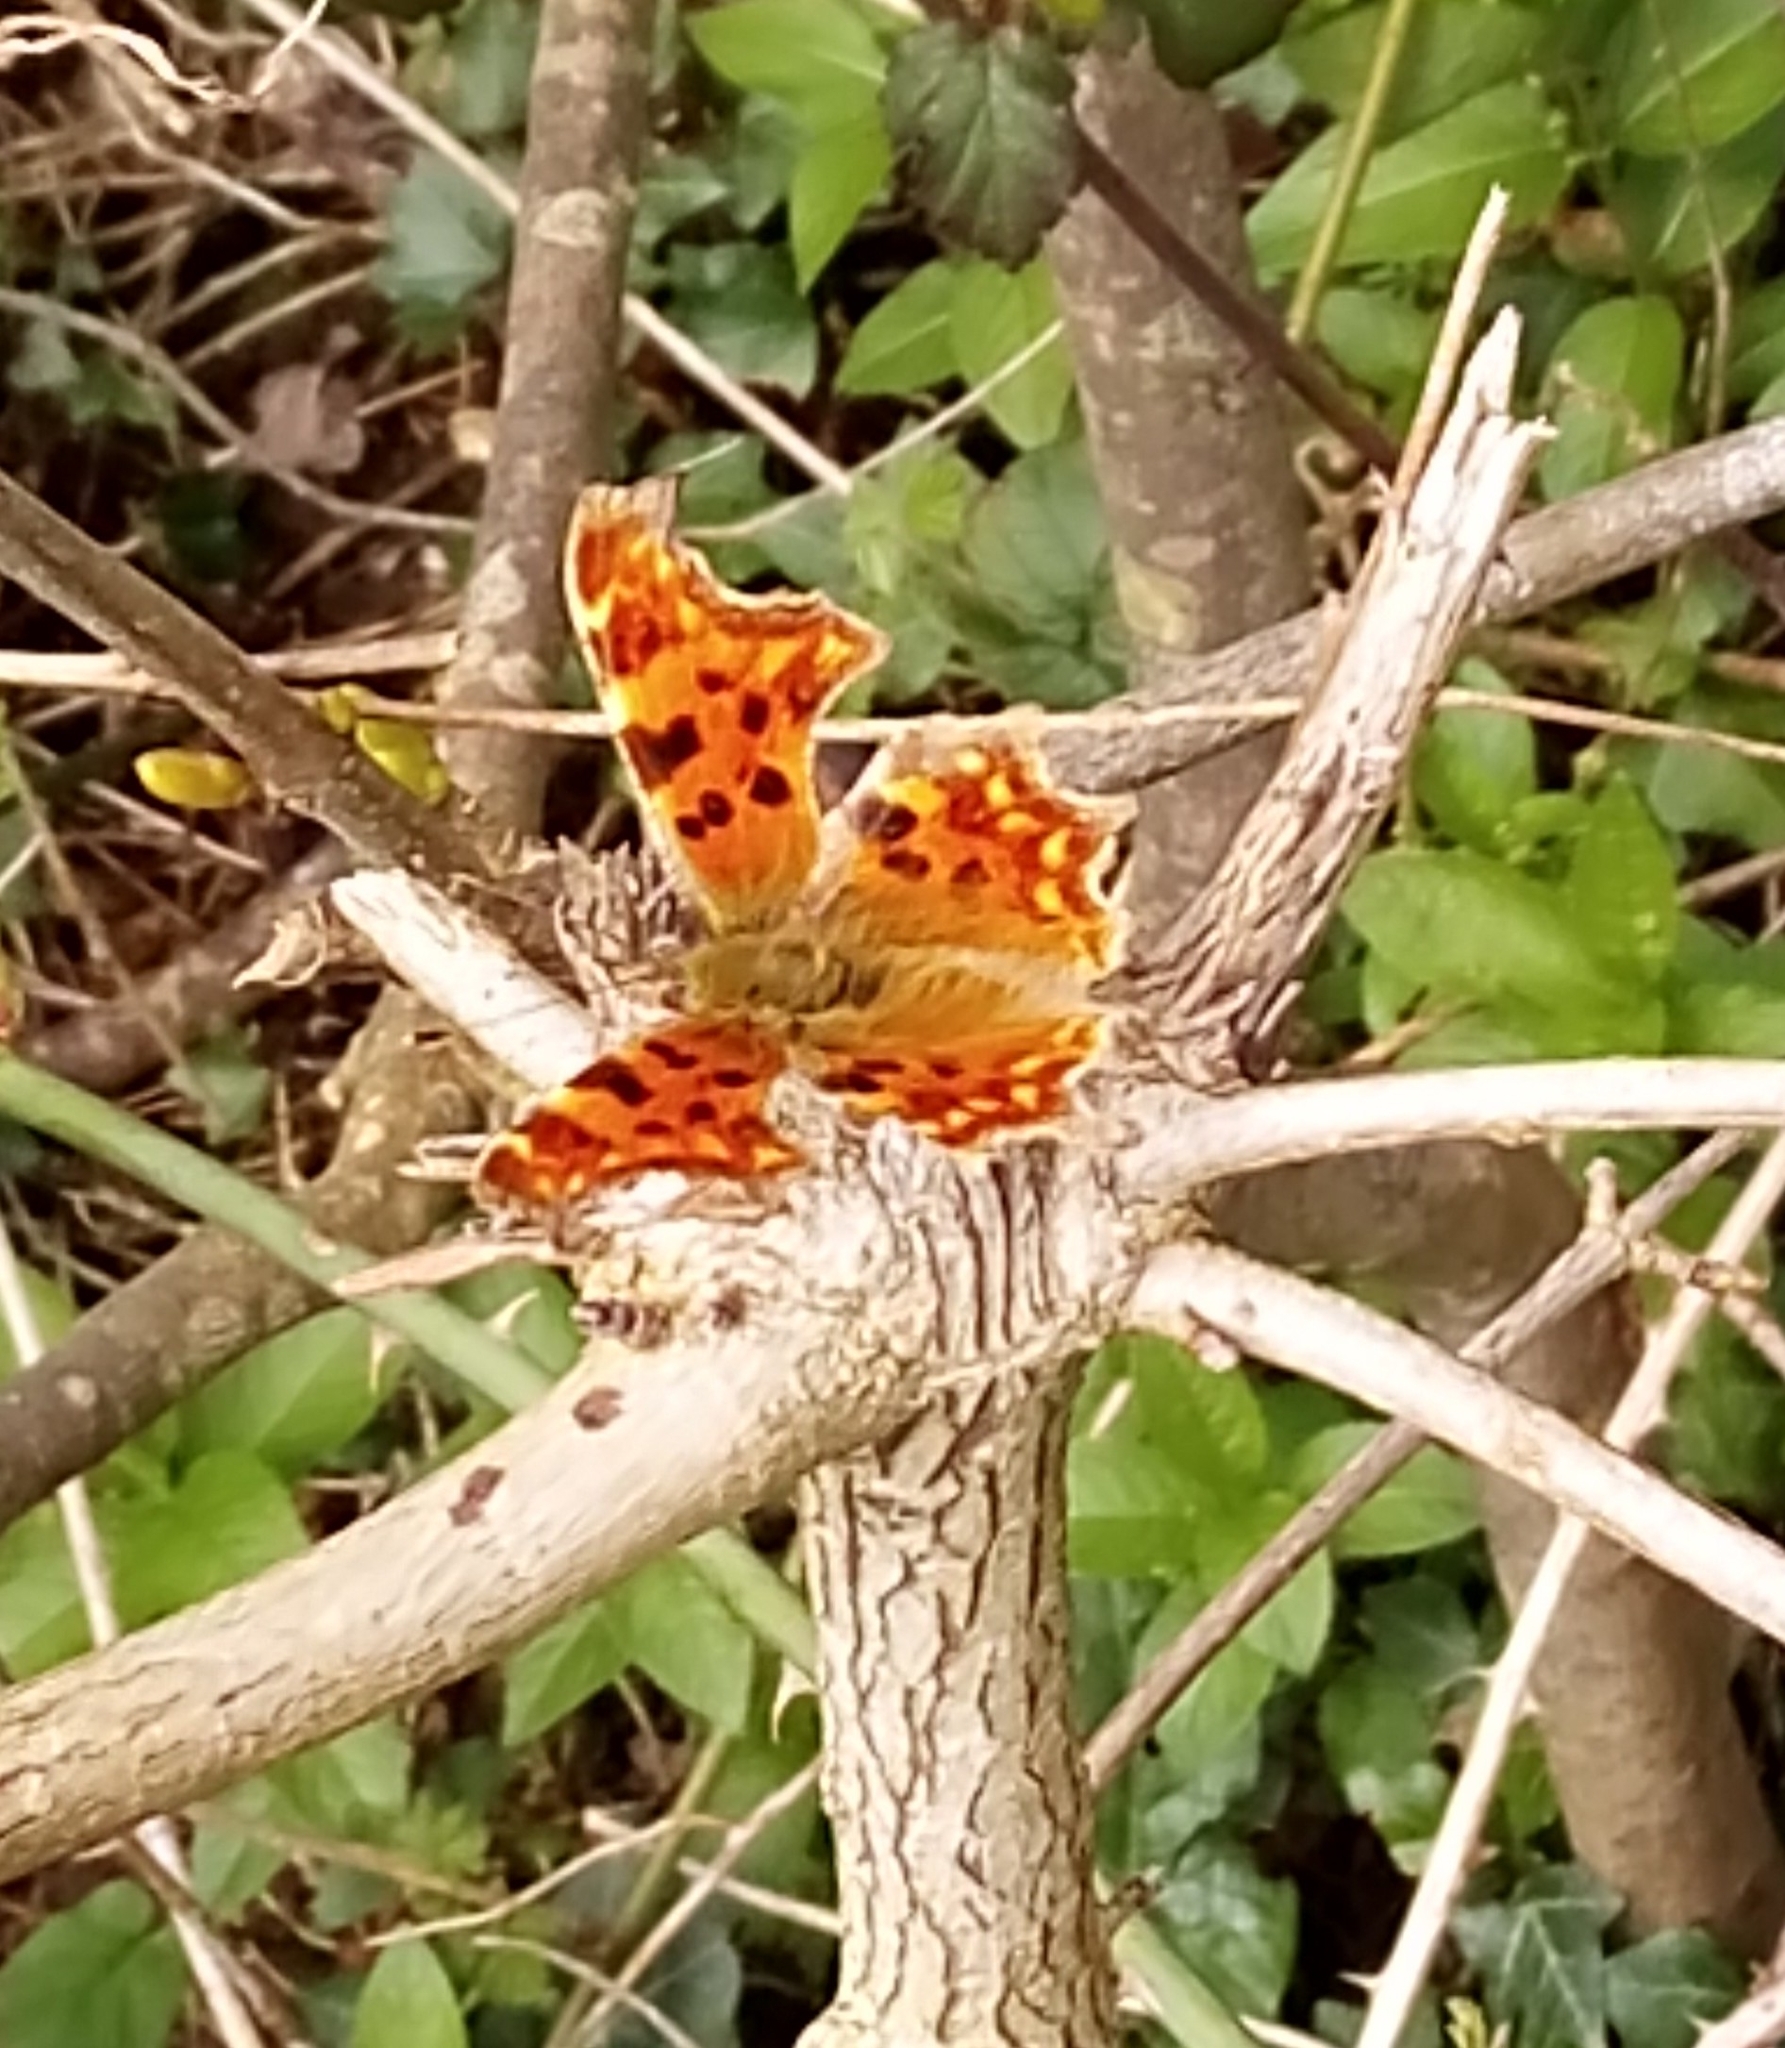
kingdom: Animalia
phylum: Arthropoda
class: Insecta
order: Lepidoptera
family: Nymphalidae
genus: Polygonia
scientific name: Polygonia c-album
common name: Comma
